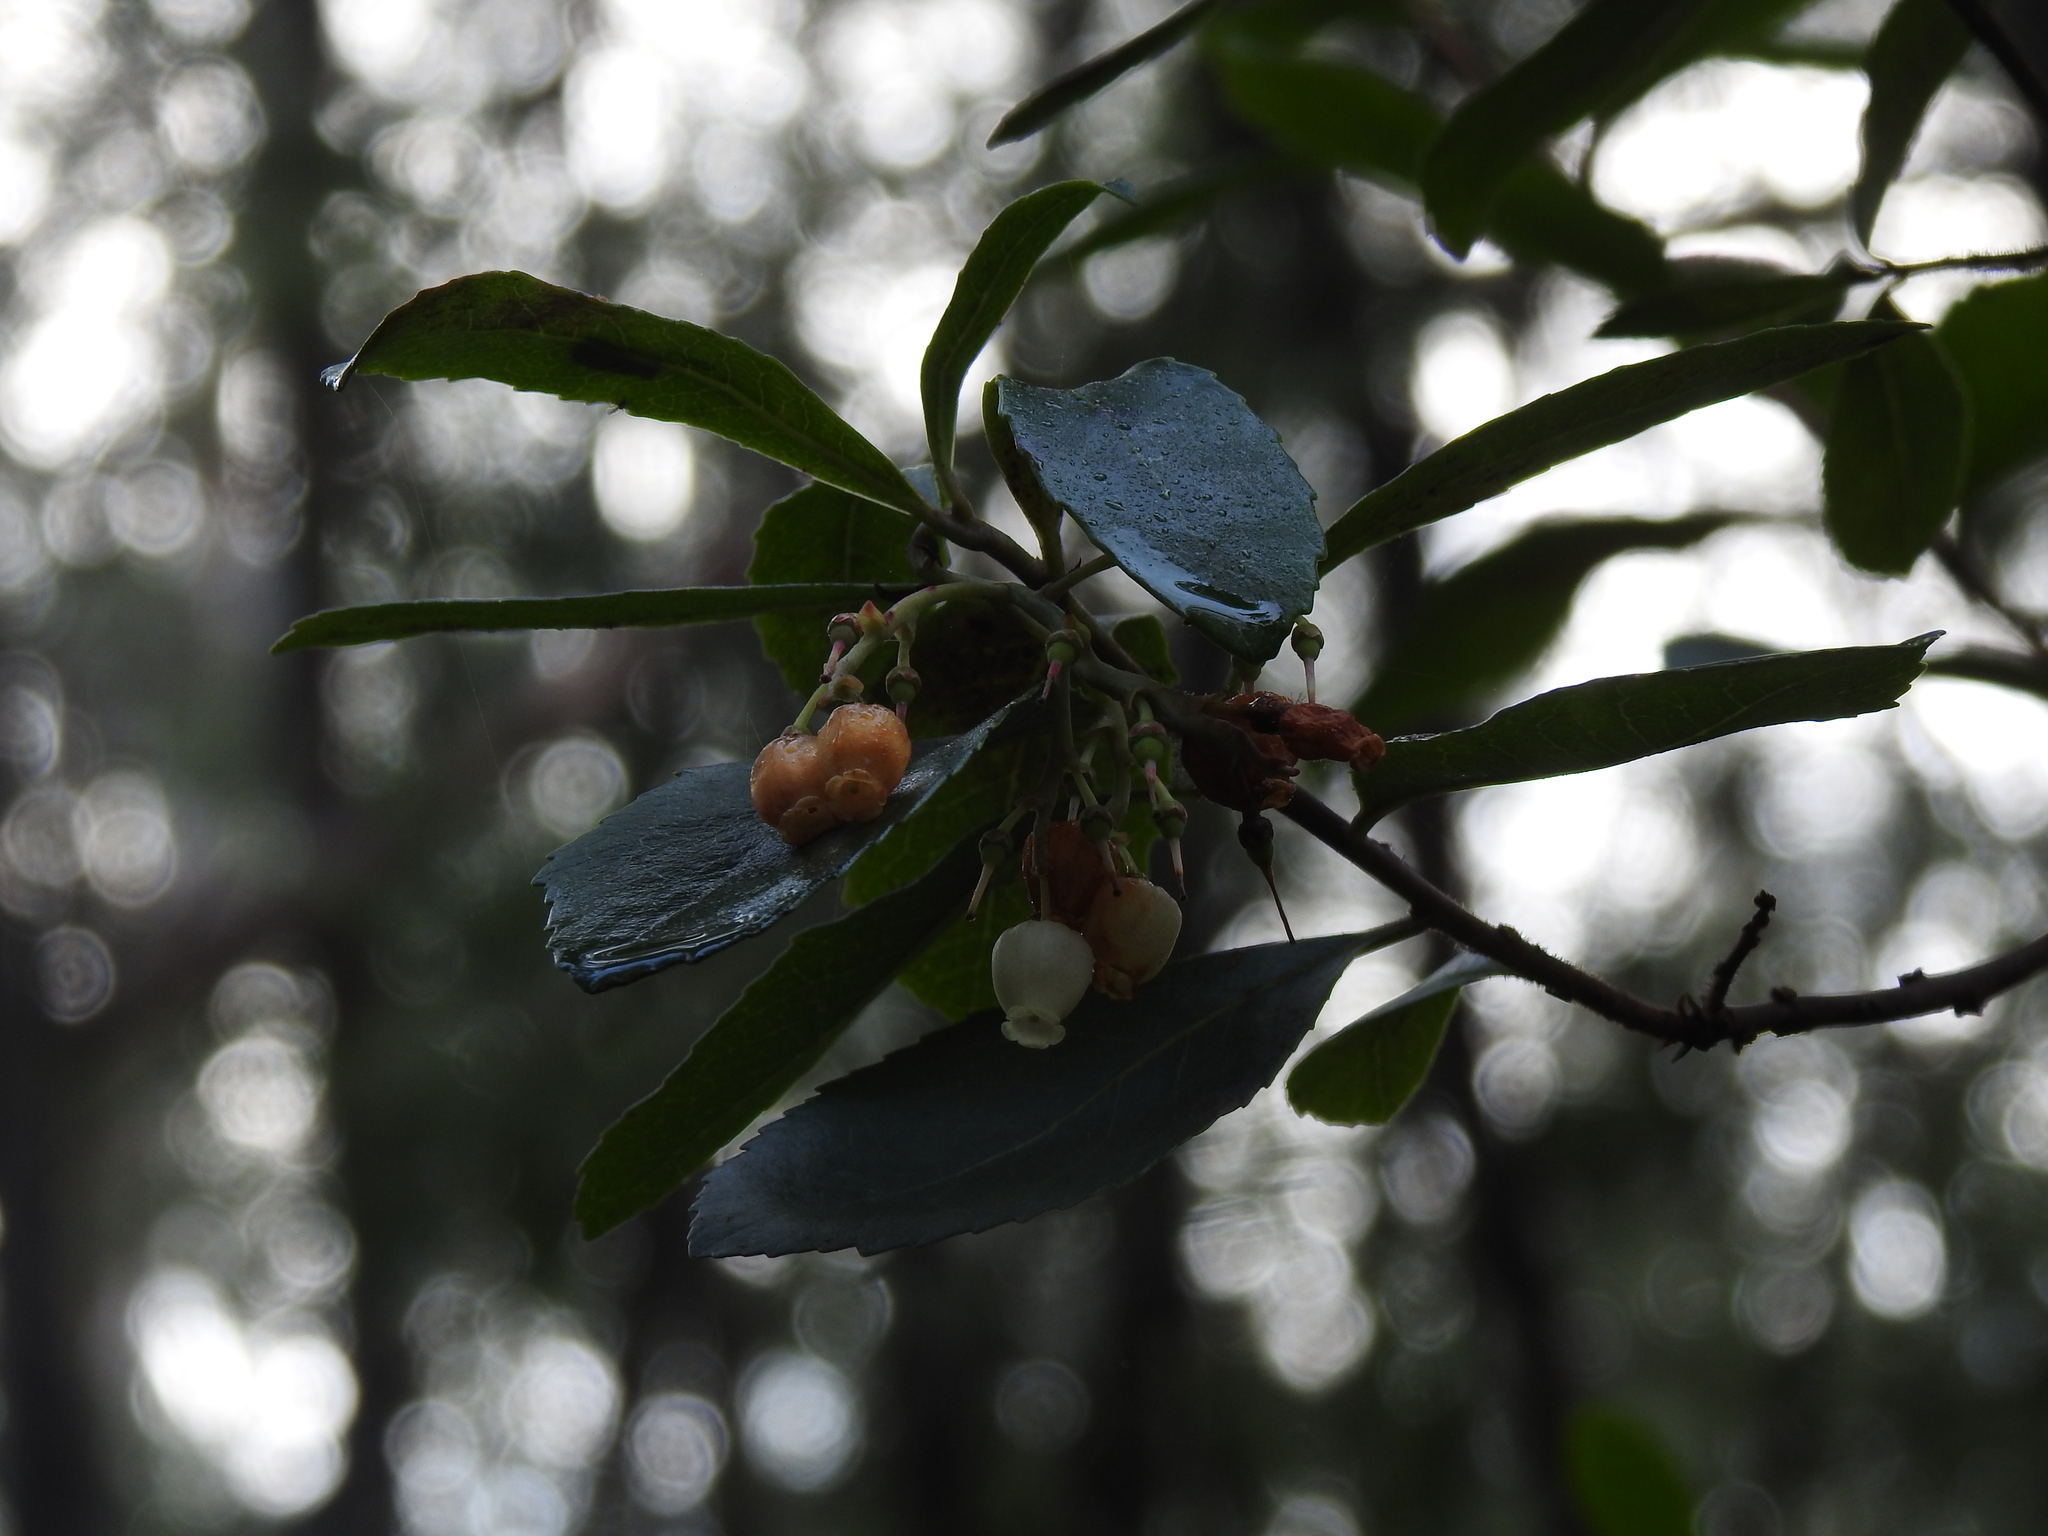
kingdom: Plantae
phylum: Tracheophyta
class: Magnoliopsida
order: Ericales
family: Ericaceae
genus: Arbutus
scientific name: Arbutus unedo
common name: Strawberry-tree
